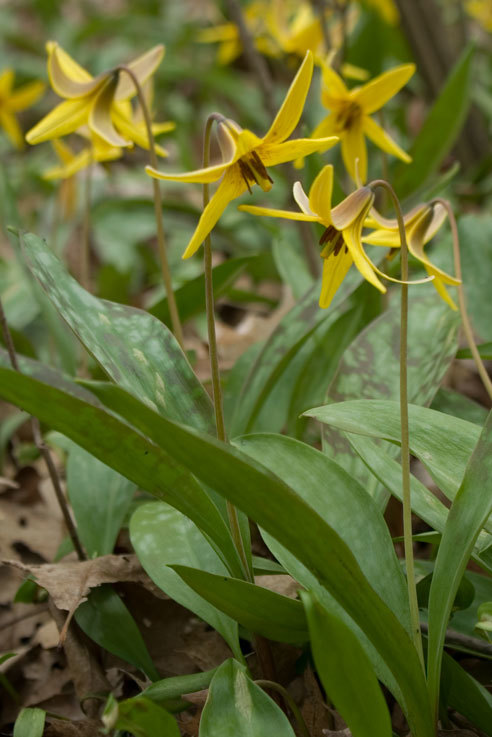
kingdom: Plantae
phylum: Tracheophyta
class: Liliopsida
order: Liliales
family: Liliaceae
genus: Erythronium
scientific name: Erythronium americanum
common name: Yellow adder's-tongue
